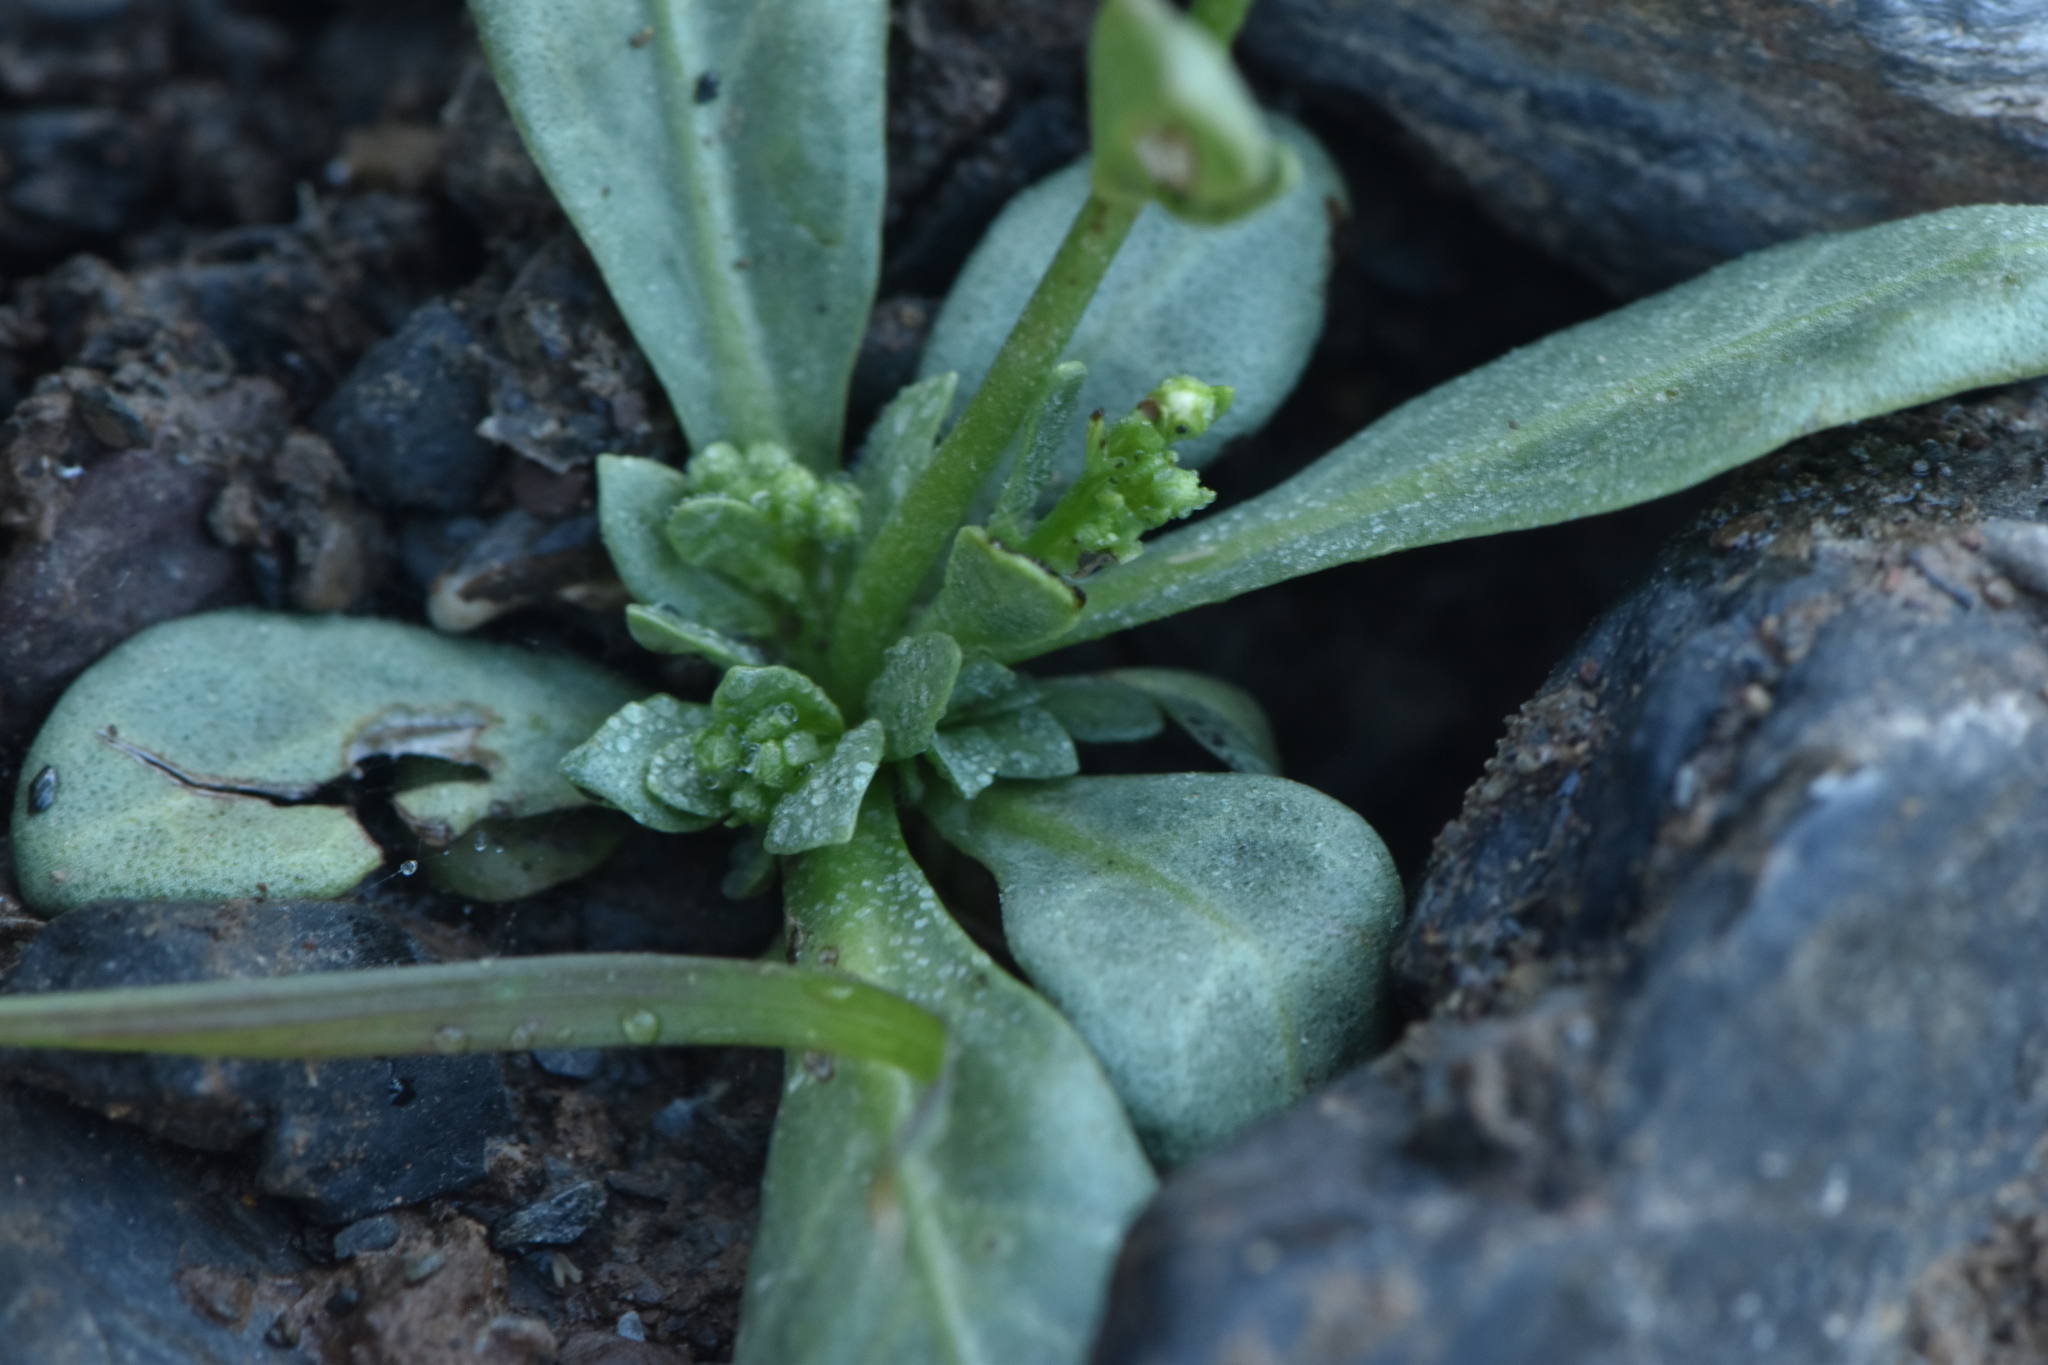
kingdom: Plantae
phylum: Tracheophyta
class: Magnoliopsida
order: Ericales
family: Primulaceae
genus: Samolus
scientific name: Samolus valerandi
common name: Brookweed
